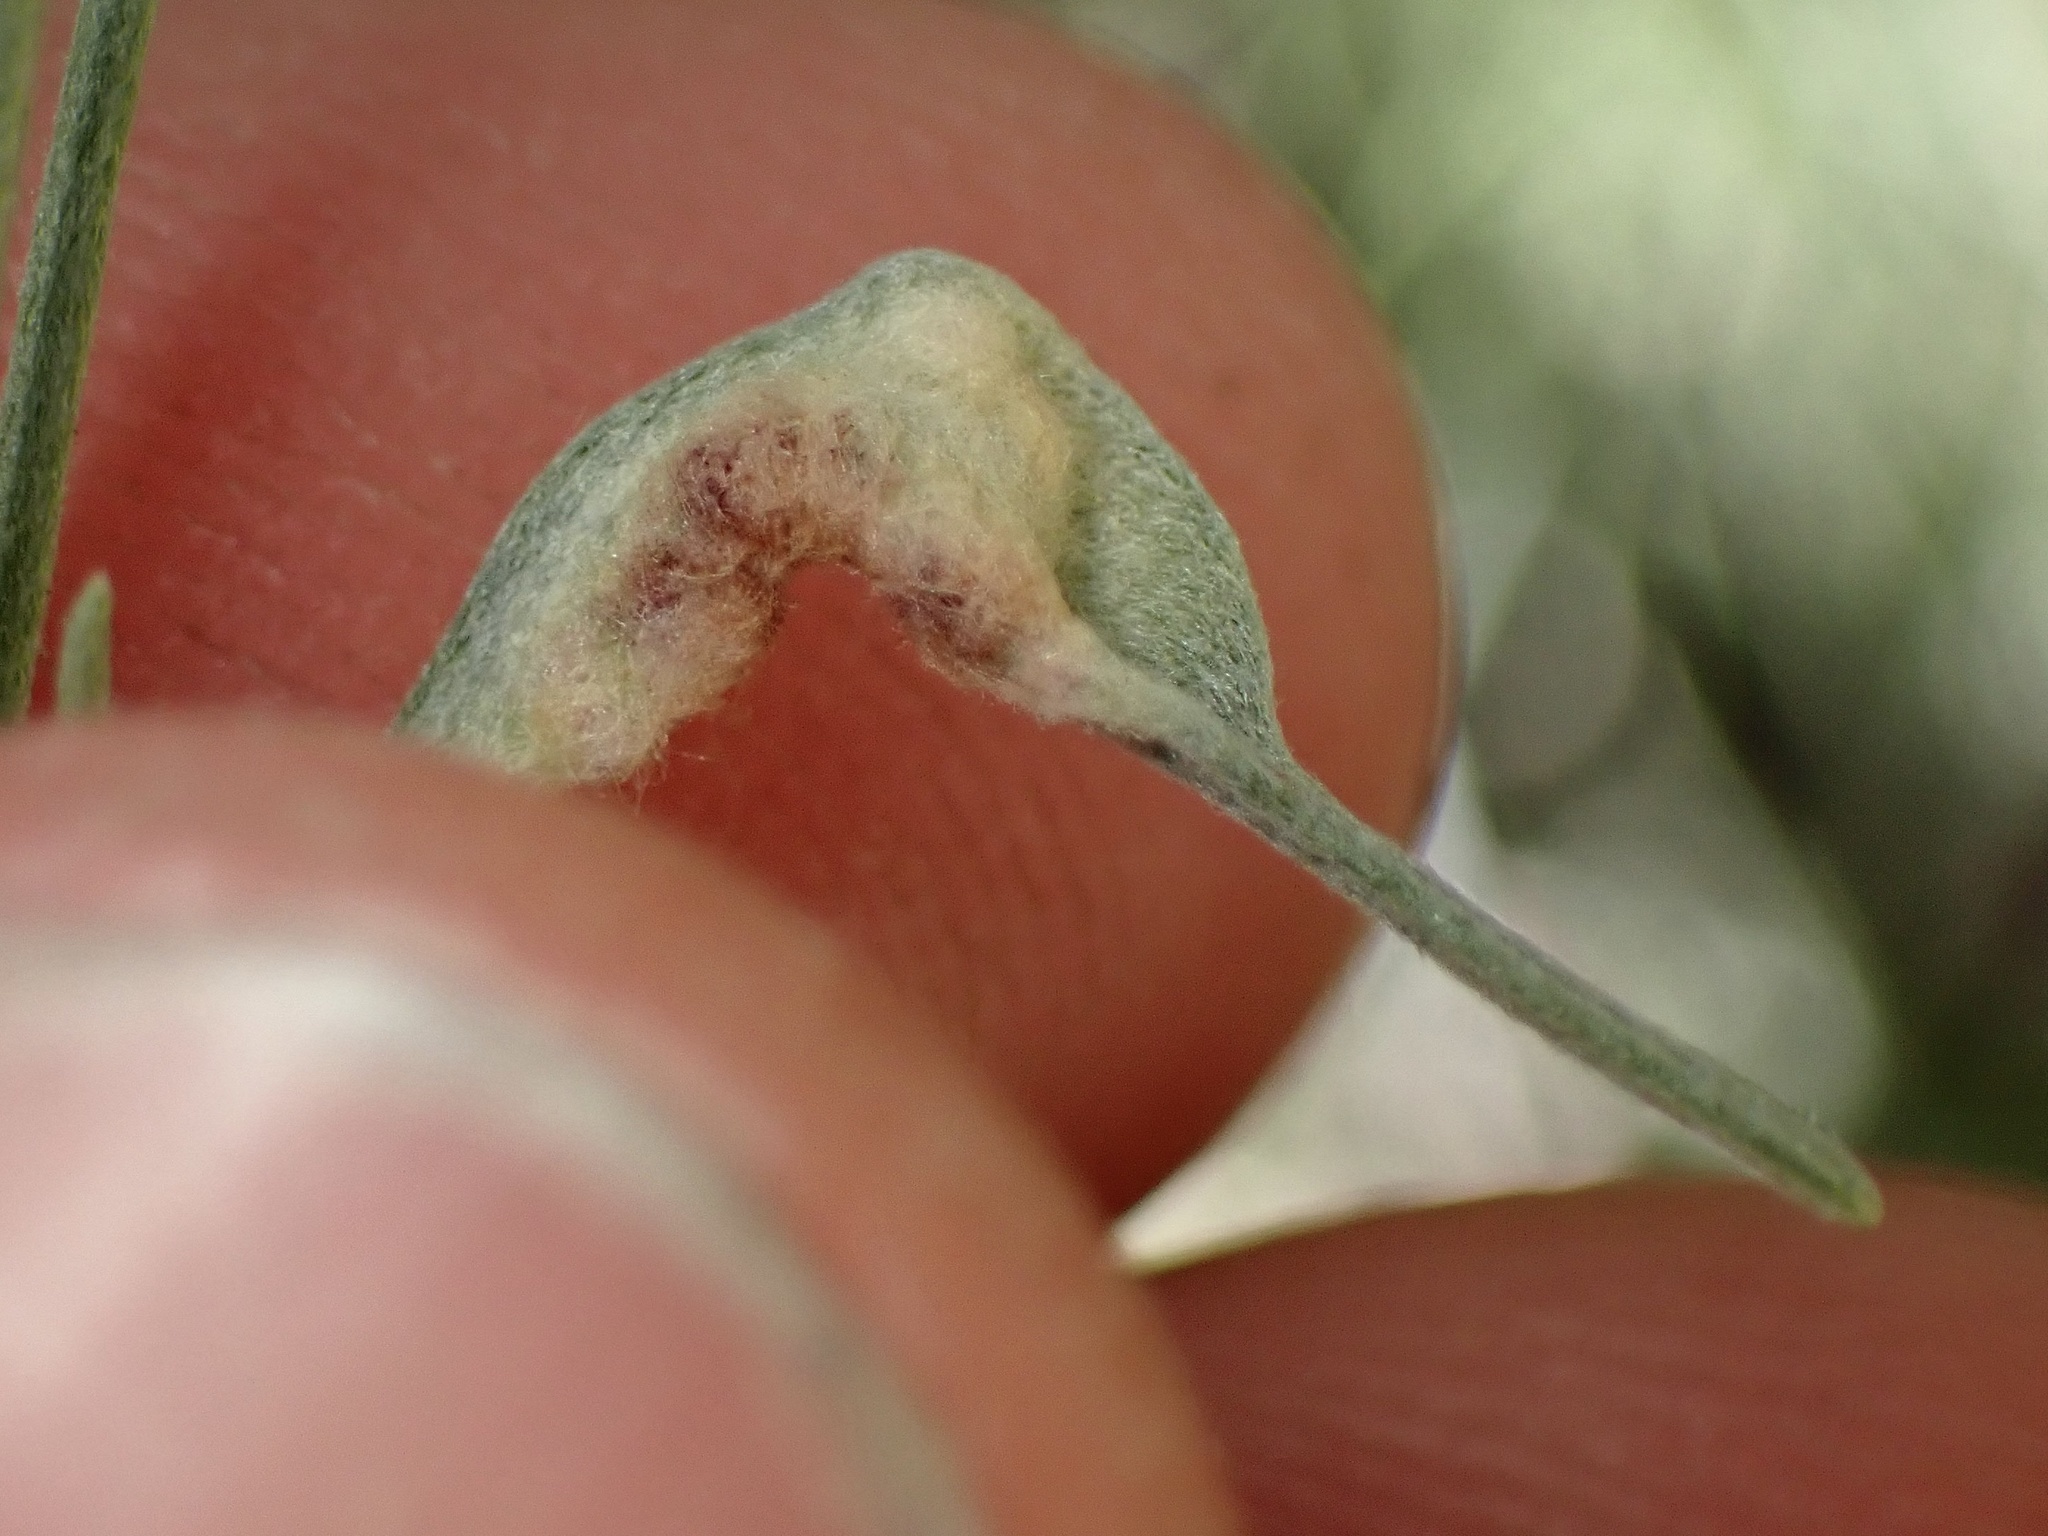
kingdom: Animalia
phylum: Arthropoda
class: Arachnida
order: Trombidiformes
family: Eriophyidae
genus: Aceria
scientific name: Aceria
